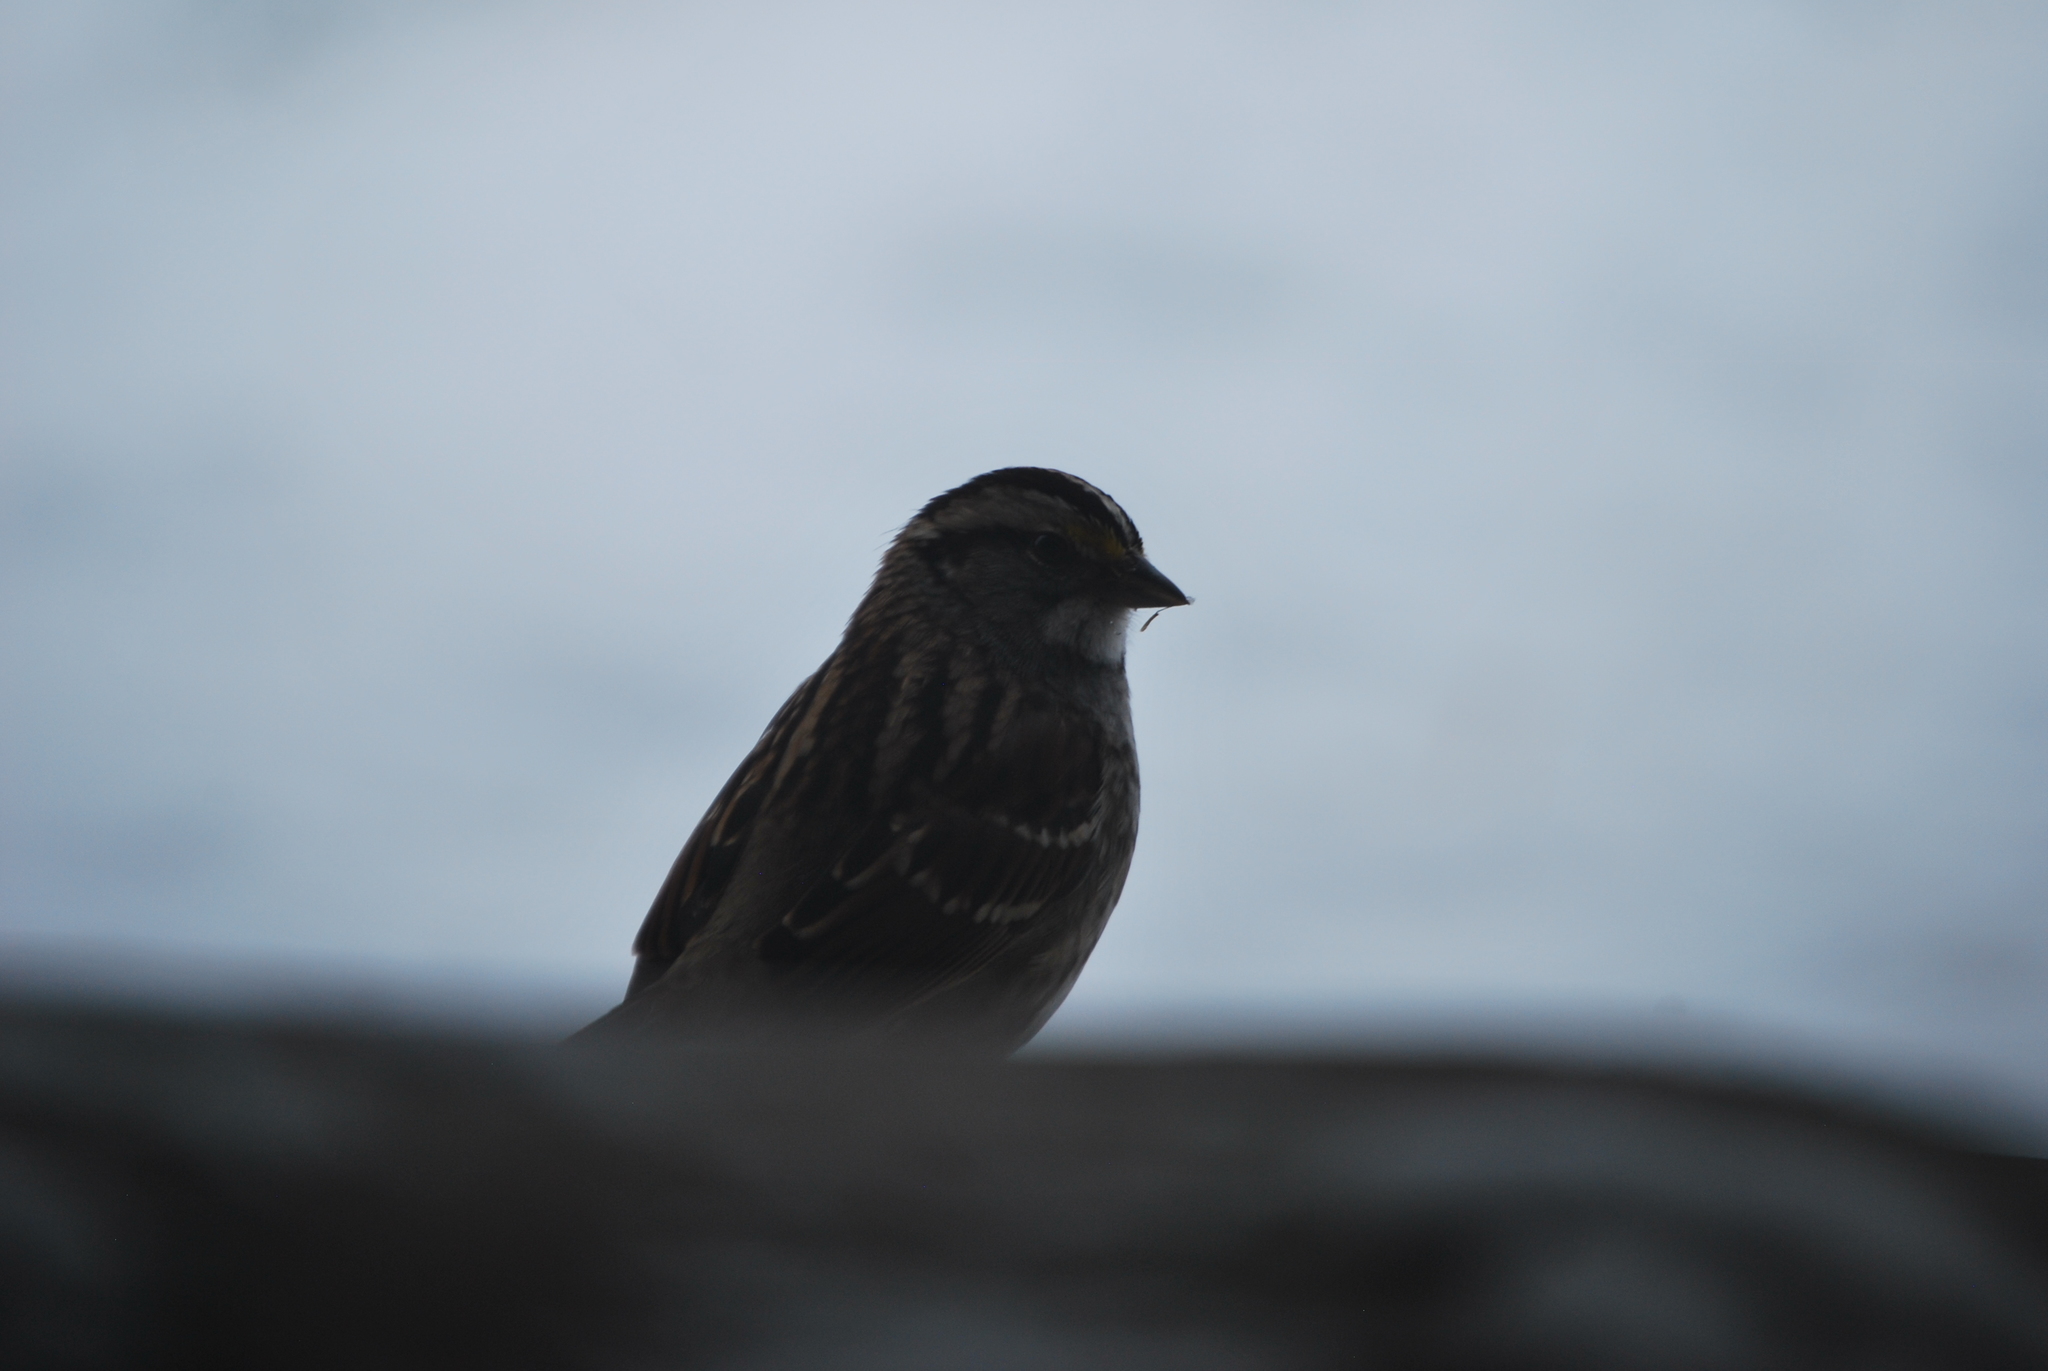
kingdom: Animalia
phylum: Chordata
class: Aves
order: Passeriformes
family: Passerellidae
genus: Zonotrichia
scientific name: Zonotrichia albicollis
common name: White-throated sparrow
